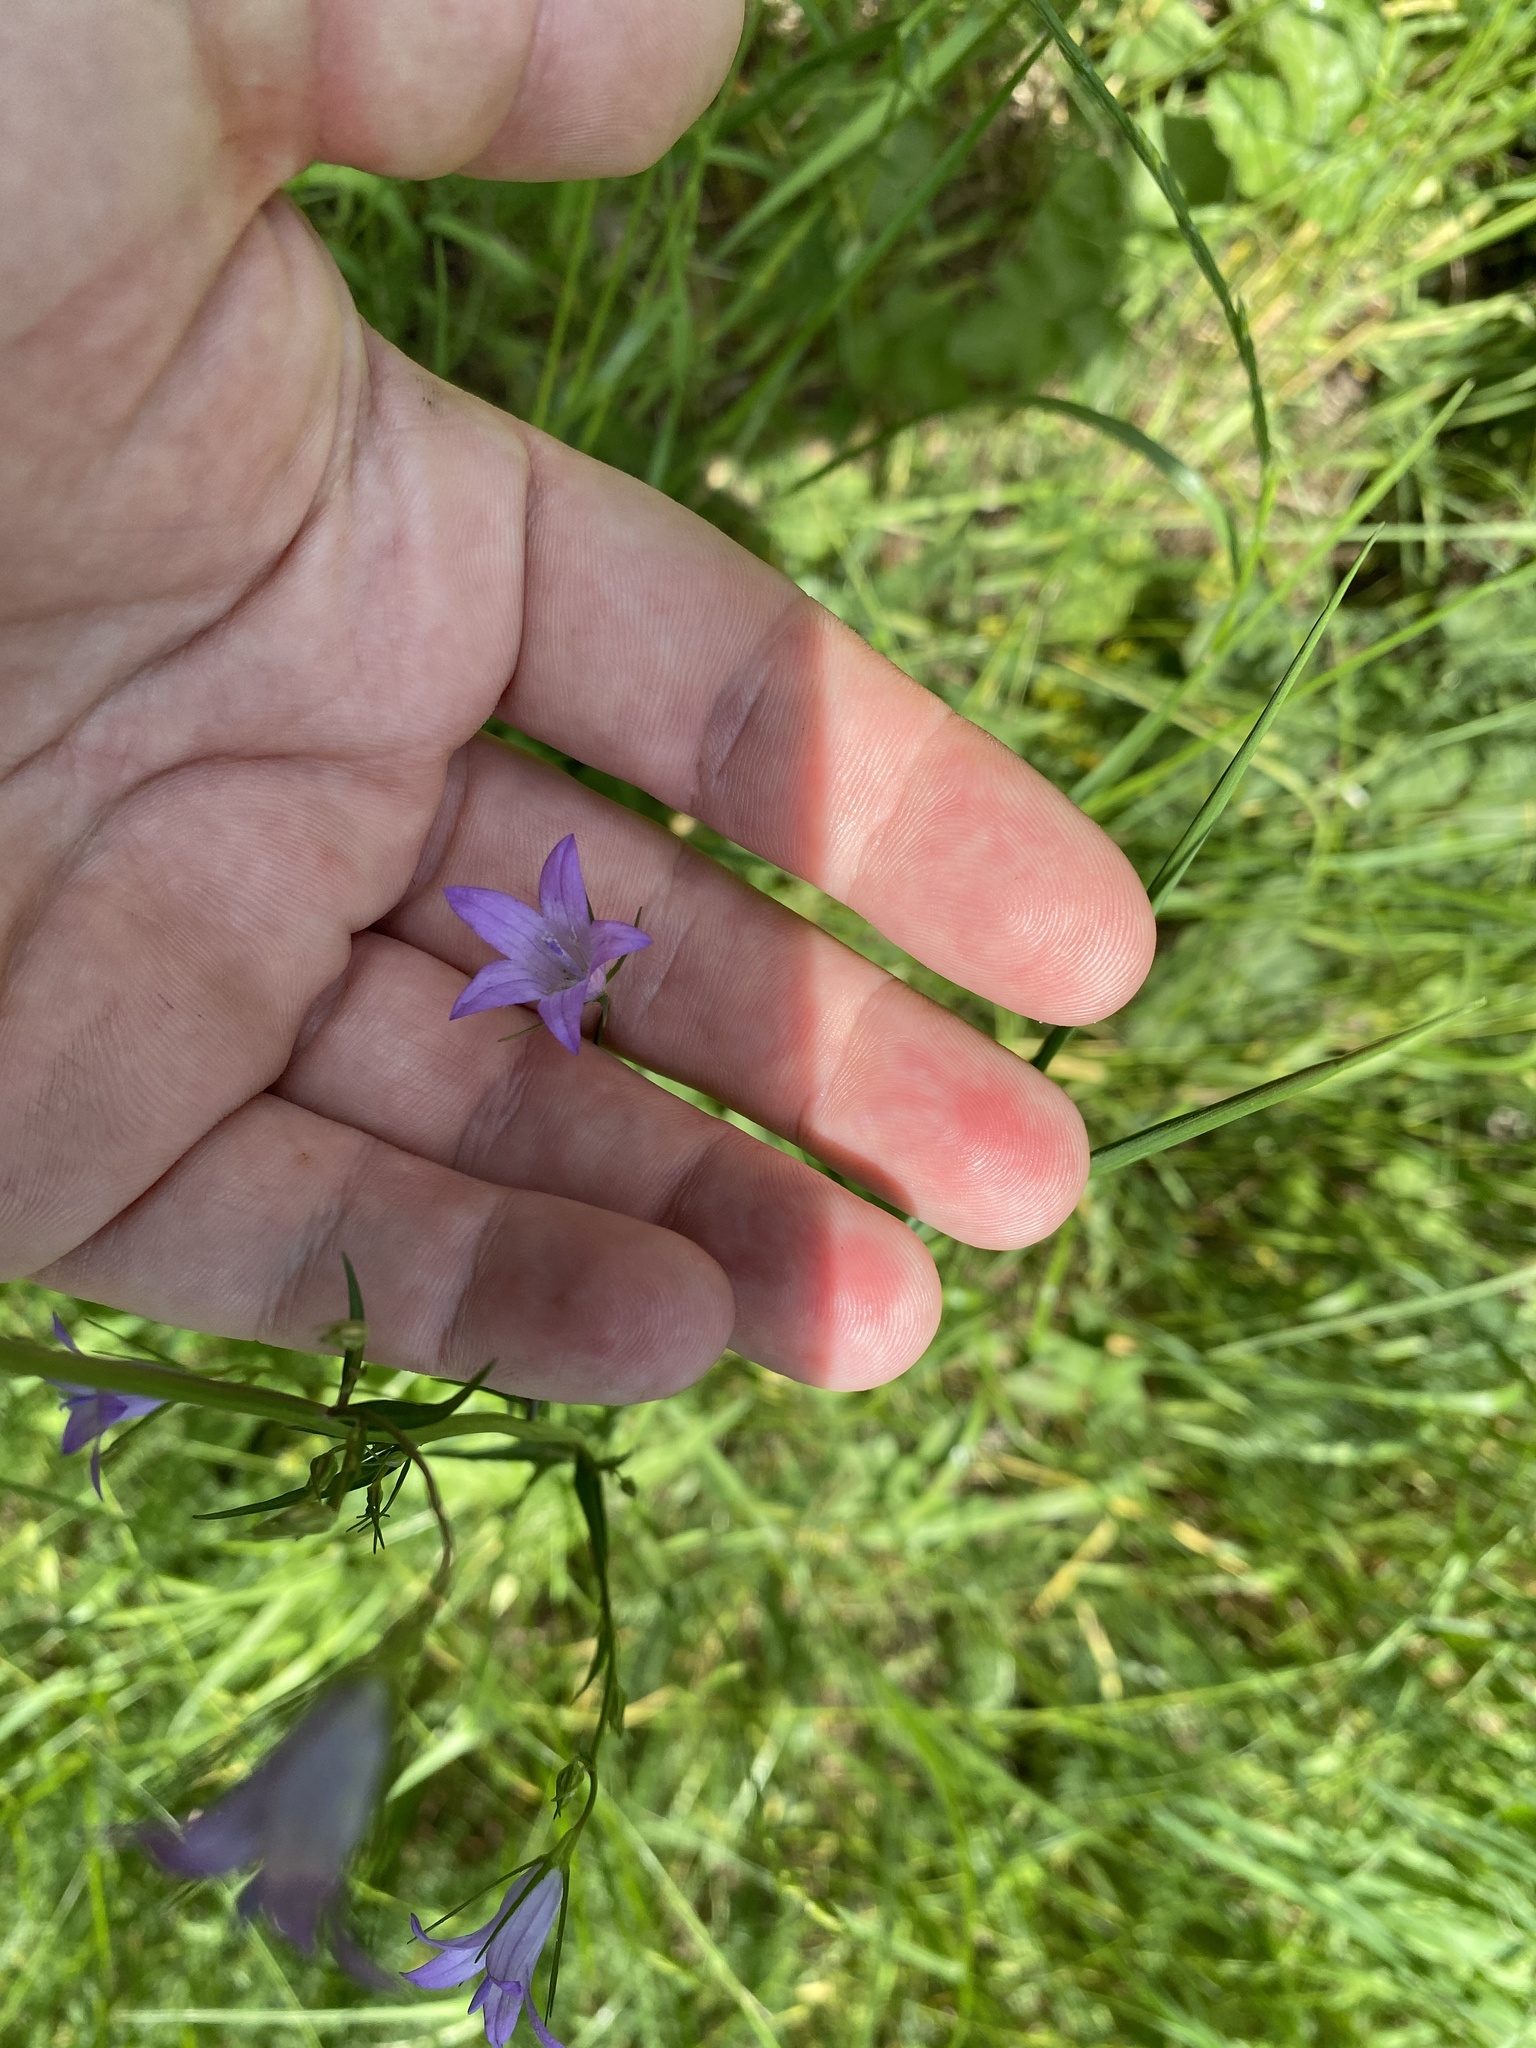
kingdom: Plantae
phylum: Tracheophyta
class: Magnoliopsida
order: Asterales
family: Campanulaceae
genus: Campanula
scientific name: Campanula rapunculus
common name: Rampion bellflower
